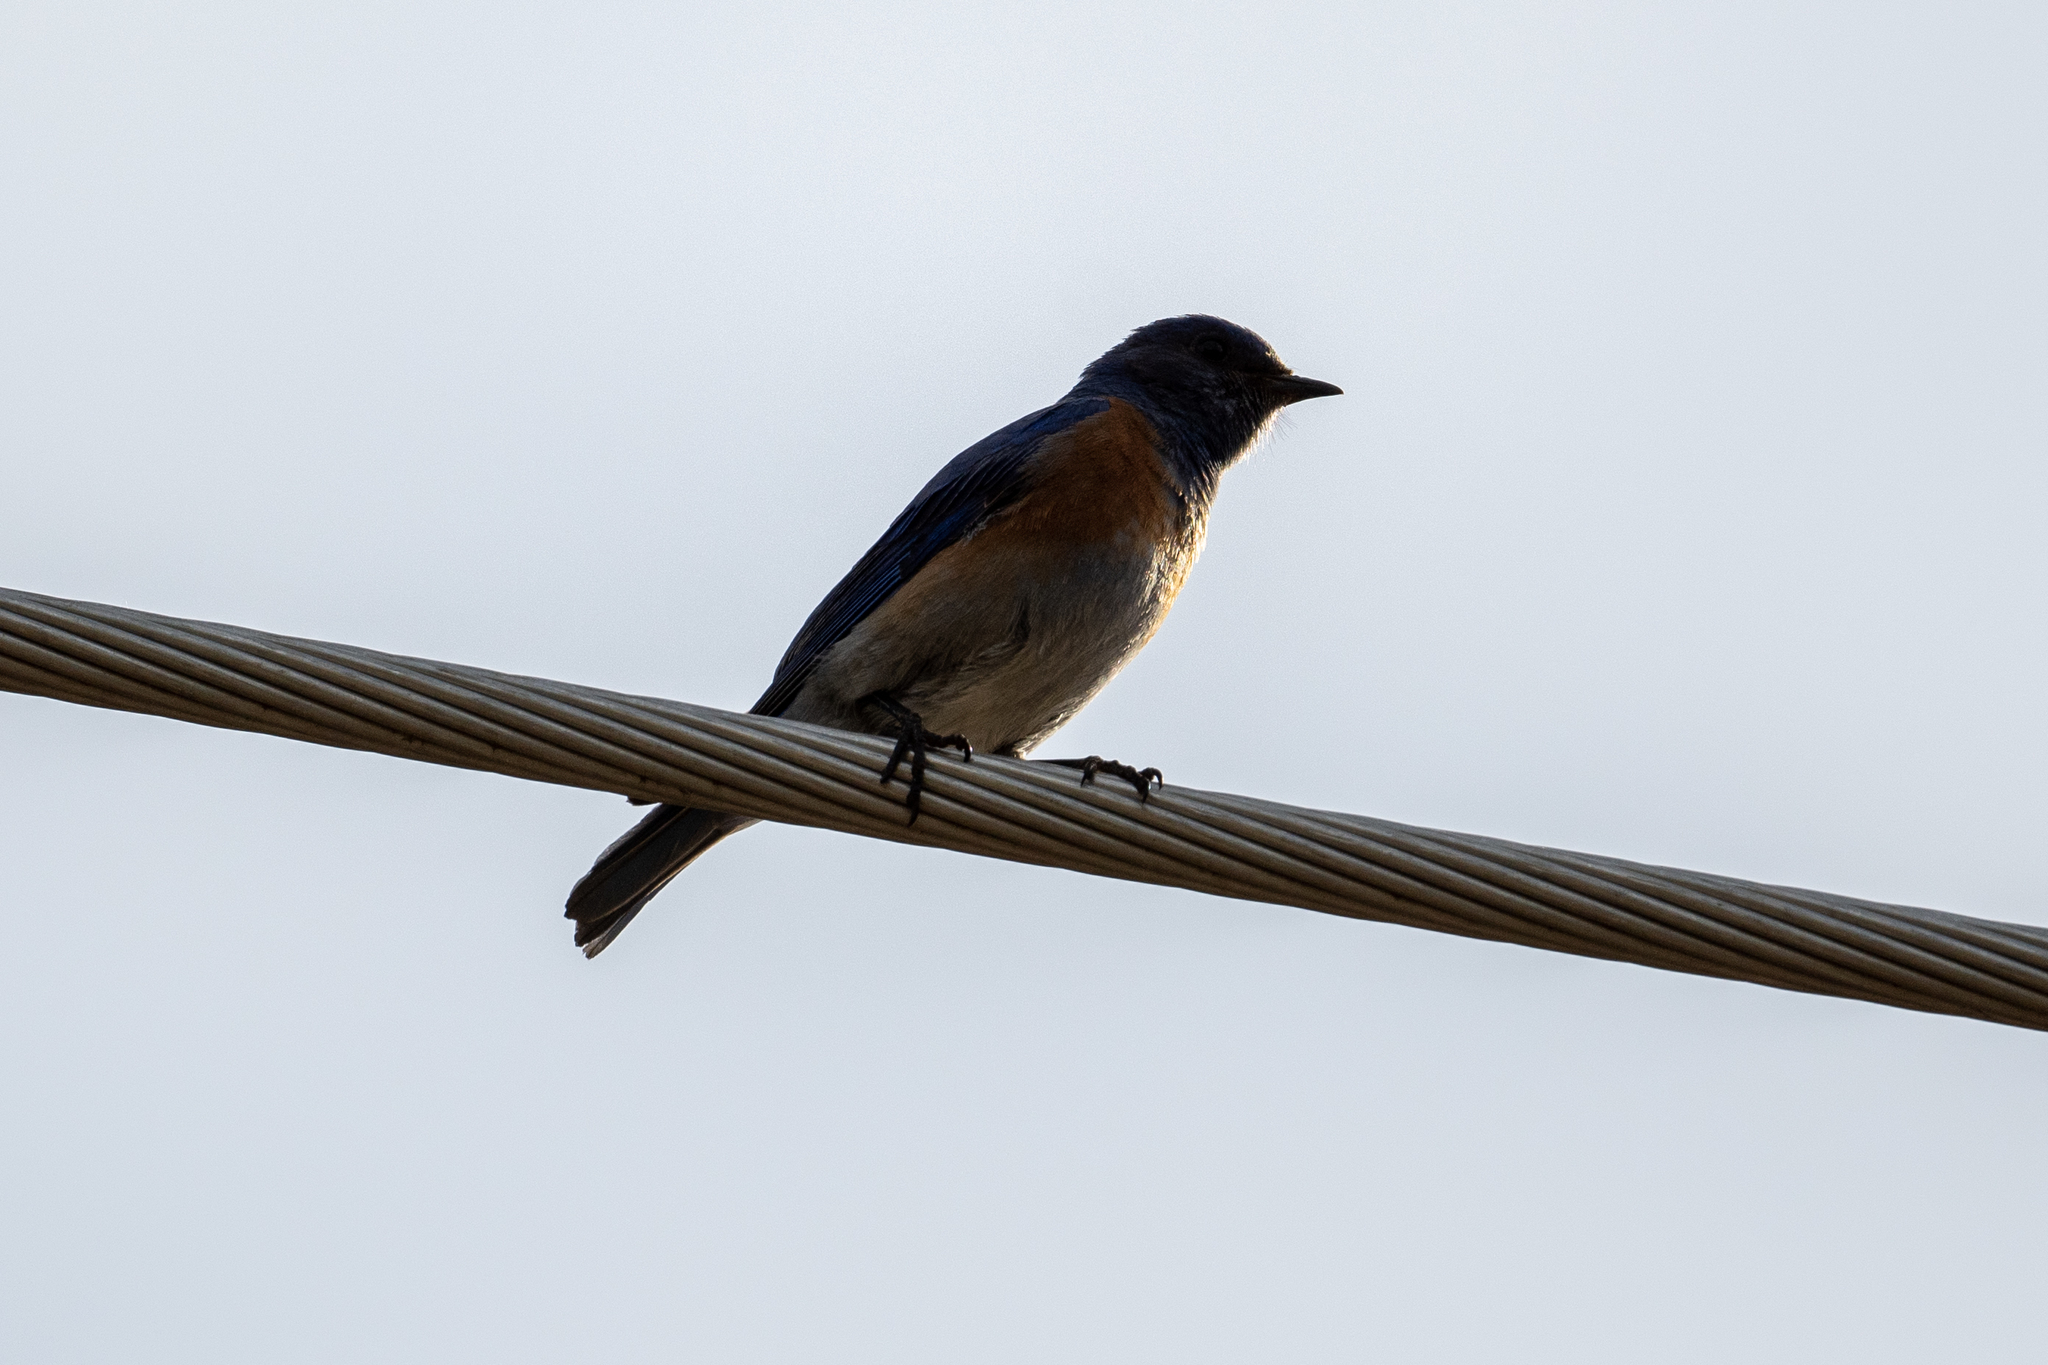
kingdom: Animalia
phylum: Chordata
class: Aves
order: Passeriformes
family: Turdidae
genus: Sialia
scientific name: Sialia mexicana
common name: Western bluebird
